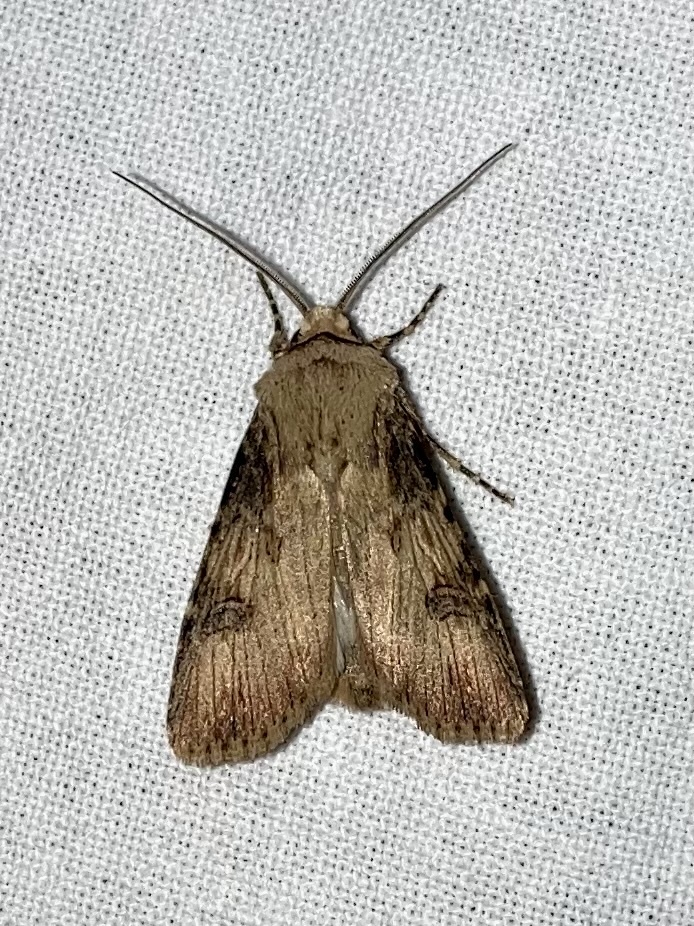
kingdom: Animalia
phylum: Arthropoda
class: Insecta
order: Lepidoptera
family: Noctuidae
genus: Agrotis
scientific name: Agrotis puta
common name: Shuttle-shaped dart
